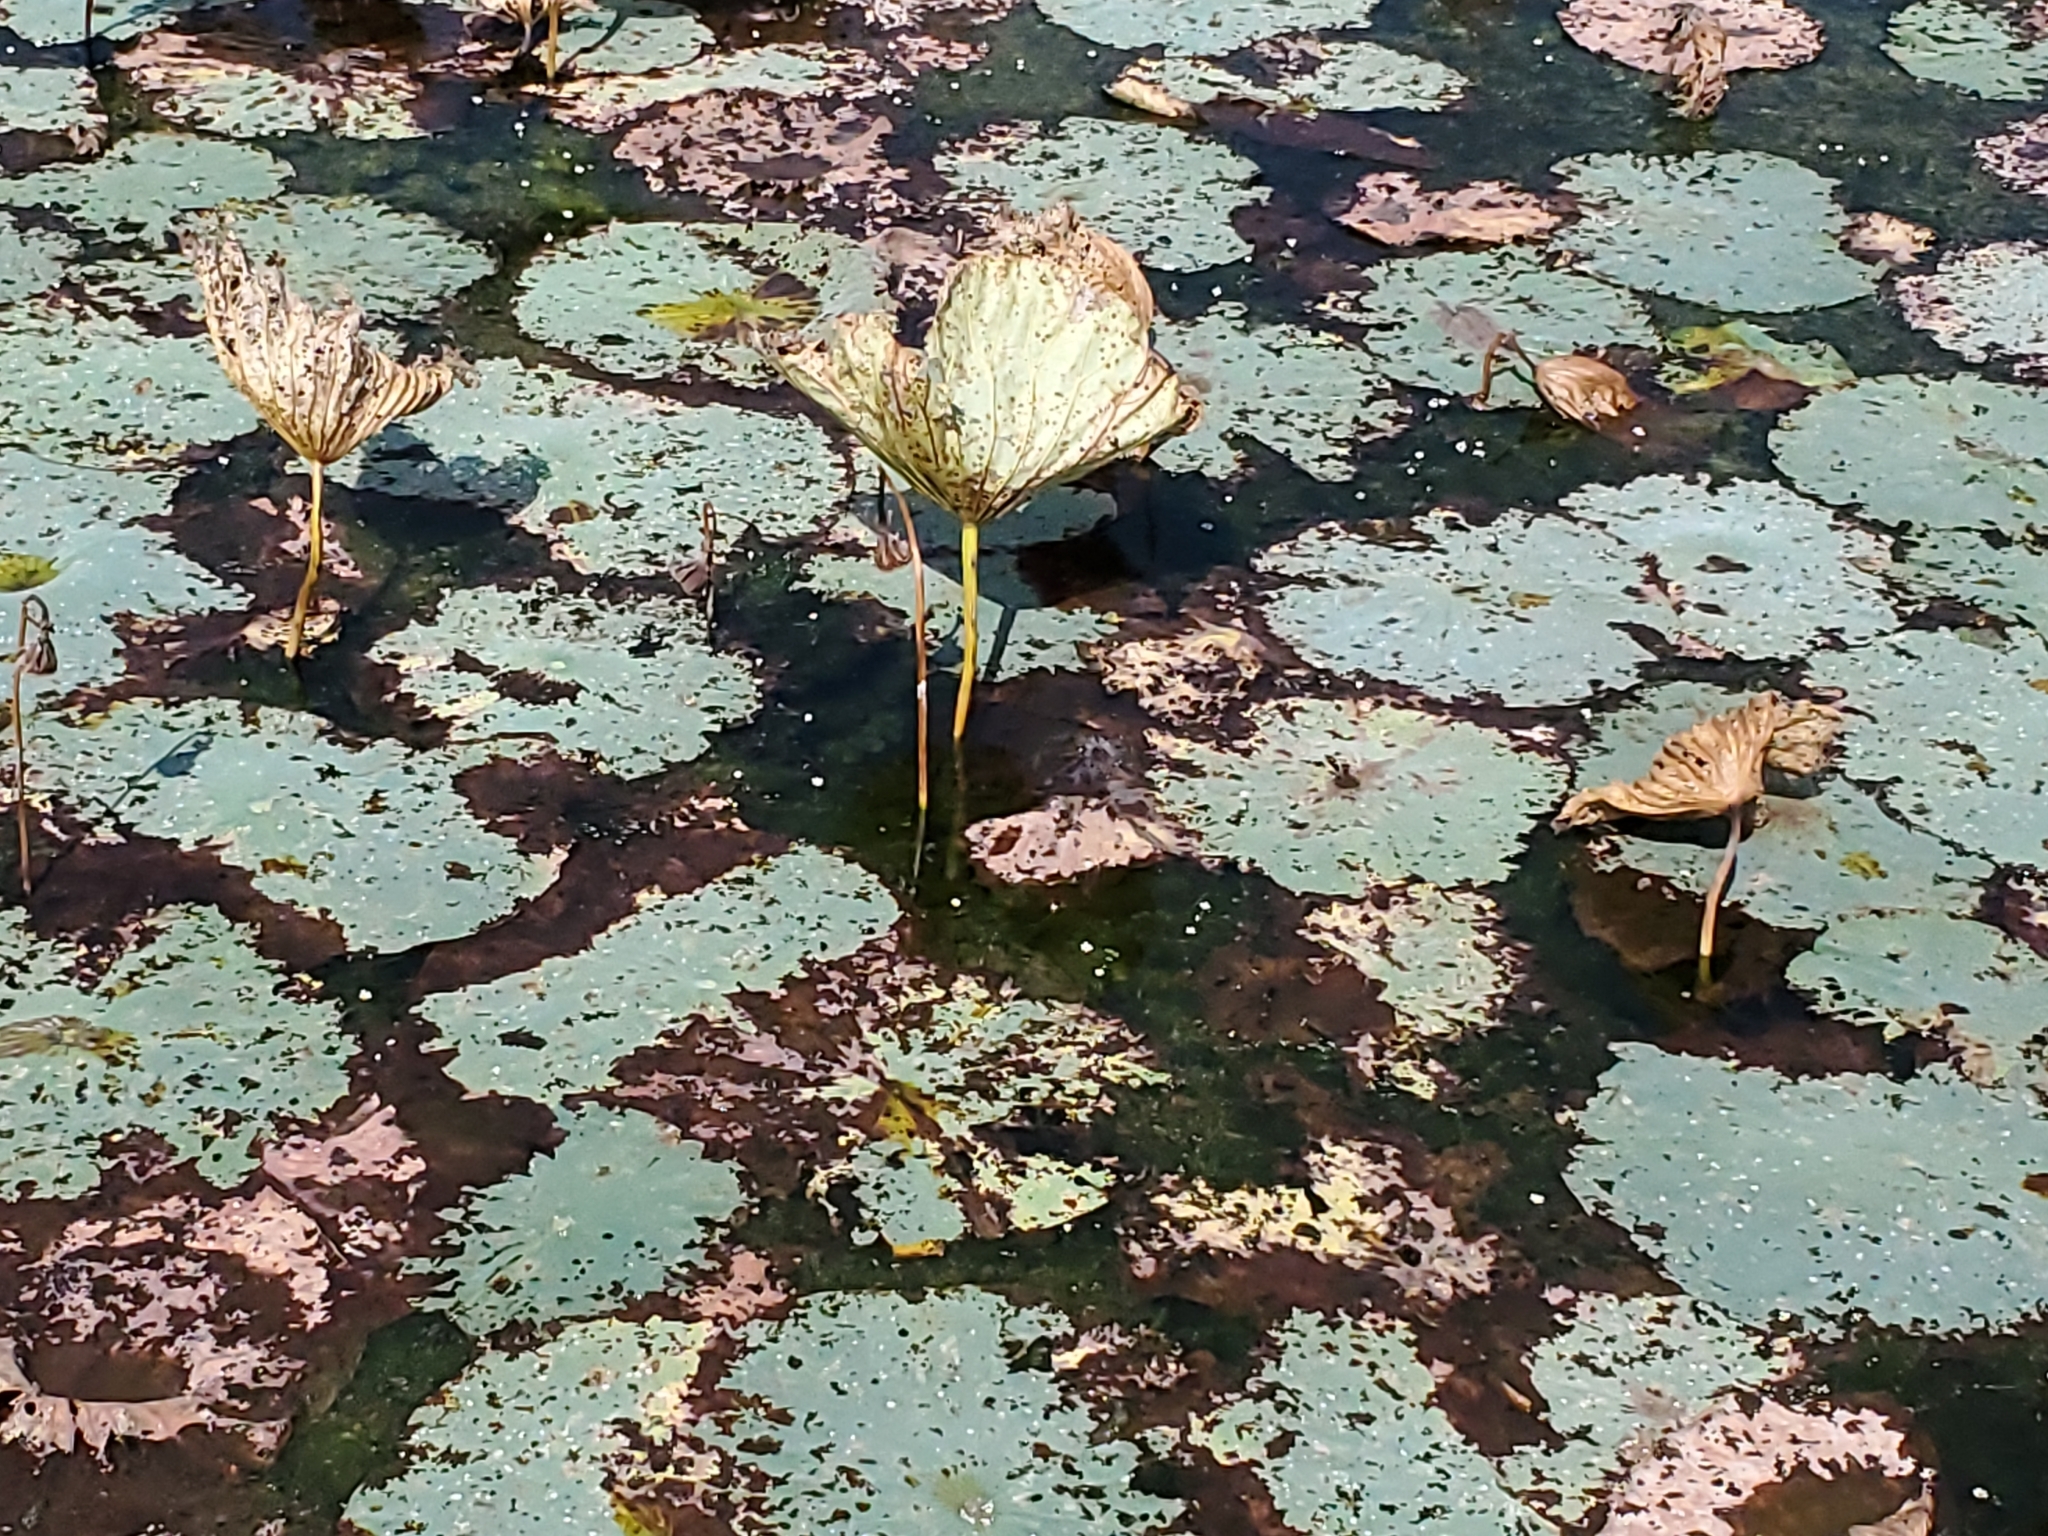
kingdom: Plantae
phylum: Tracheophyta
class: Magnoliopsida
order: Proteales
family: Nelumbonaceae
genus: Nelumbo
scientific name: Nelumbo lutea
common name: American lotus
